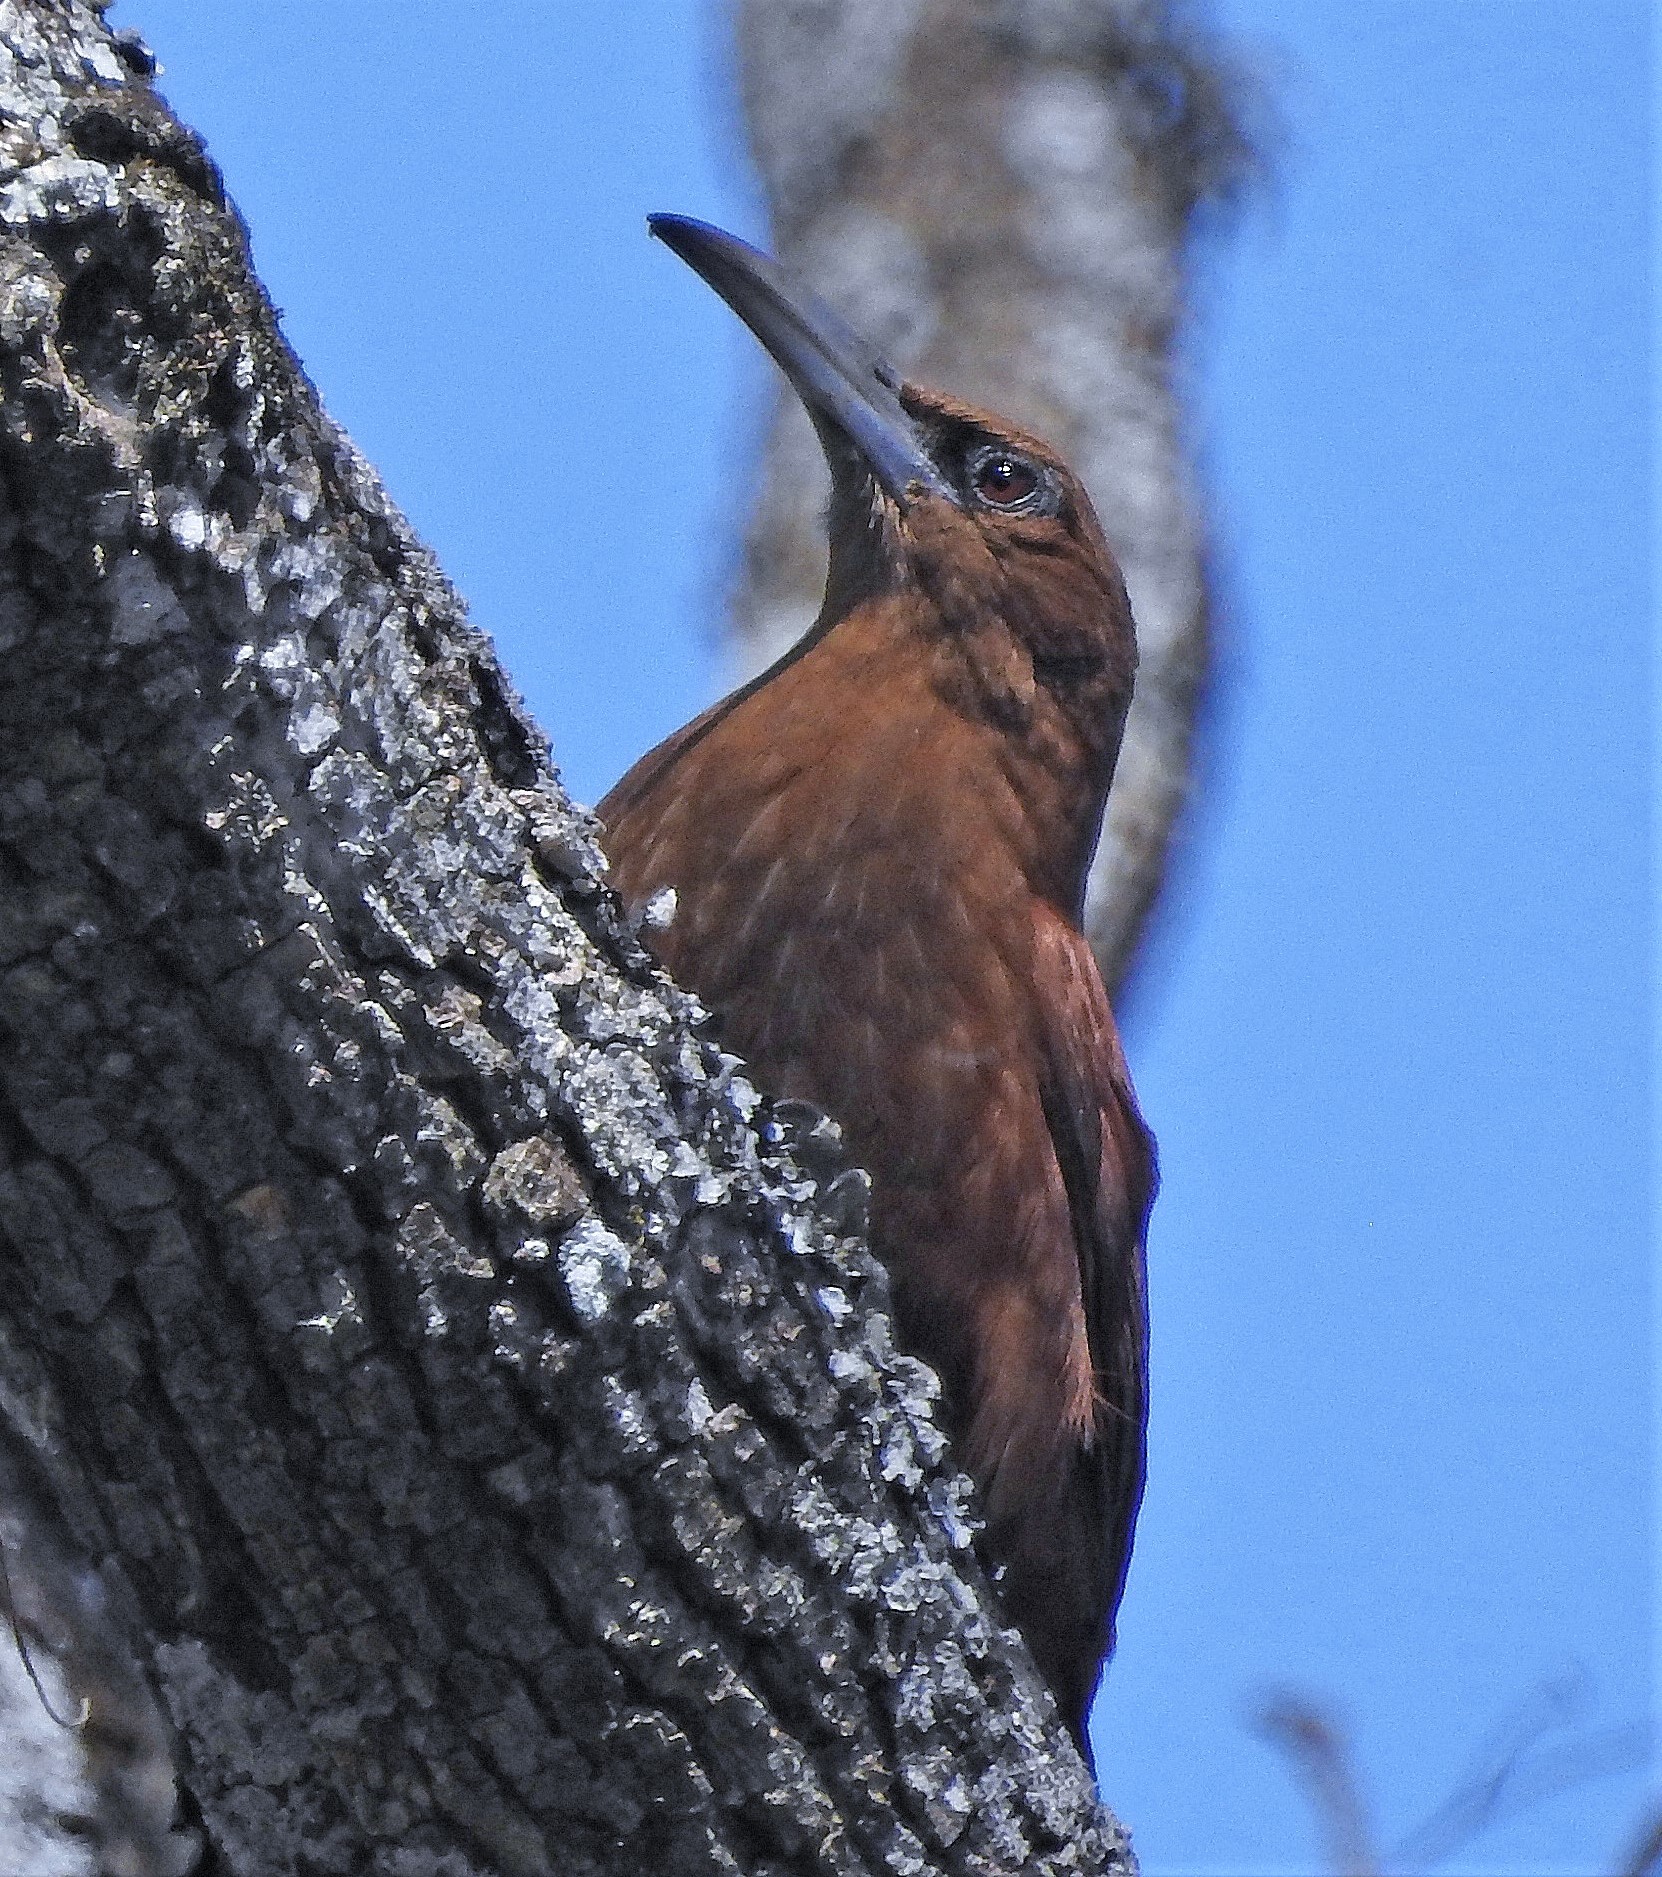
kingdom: Animalia
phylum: Chordata
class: Aves
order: Passeriformes
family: Furnariidae
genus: Xiphocolaptes
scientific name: Xiphocolaptes major
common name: Great rufous woodcreeper
